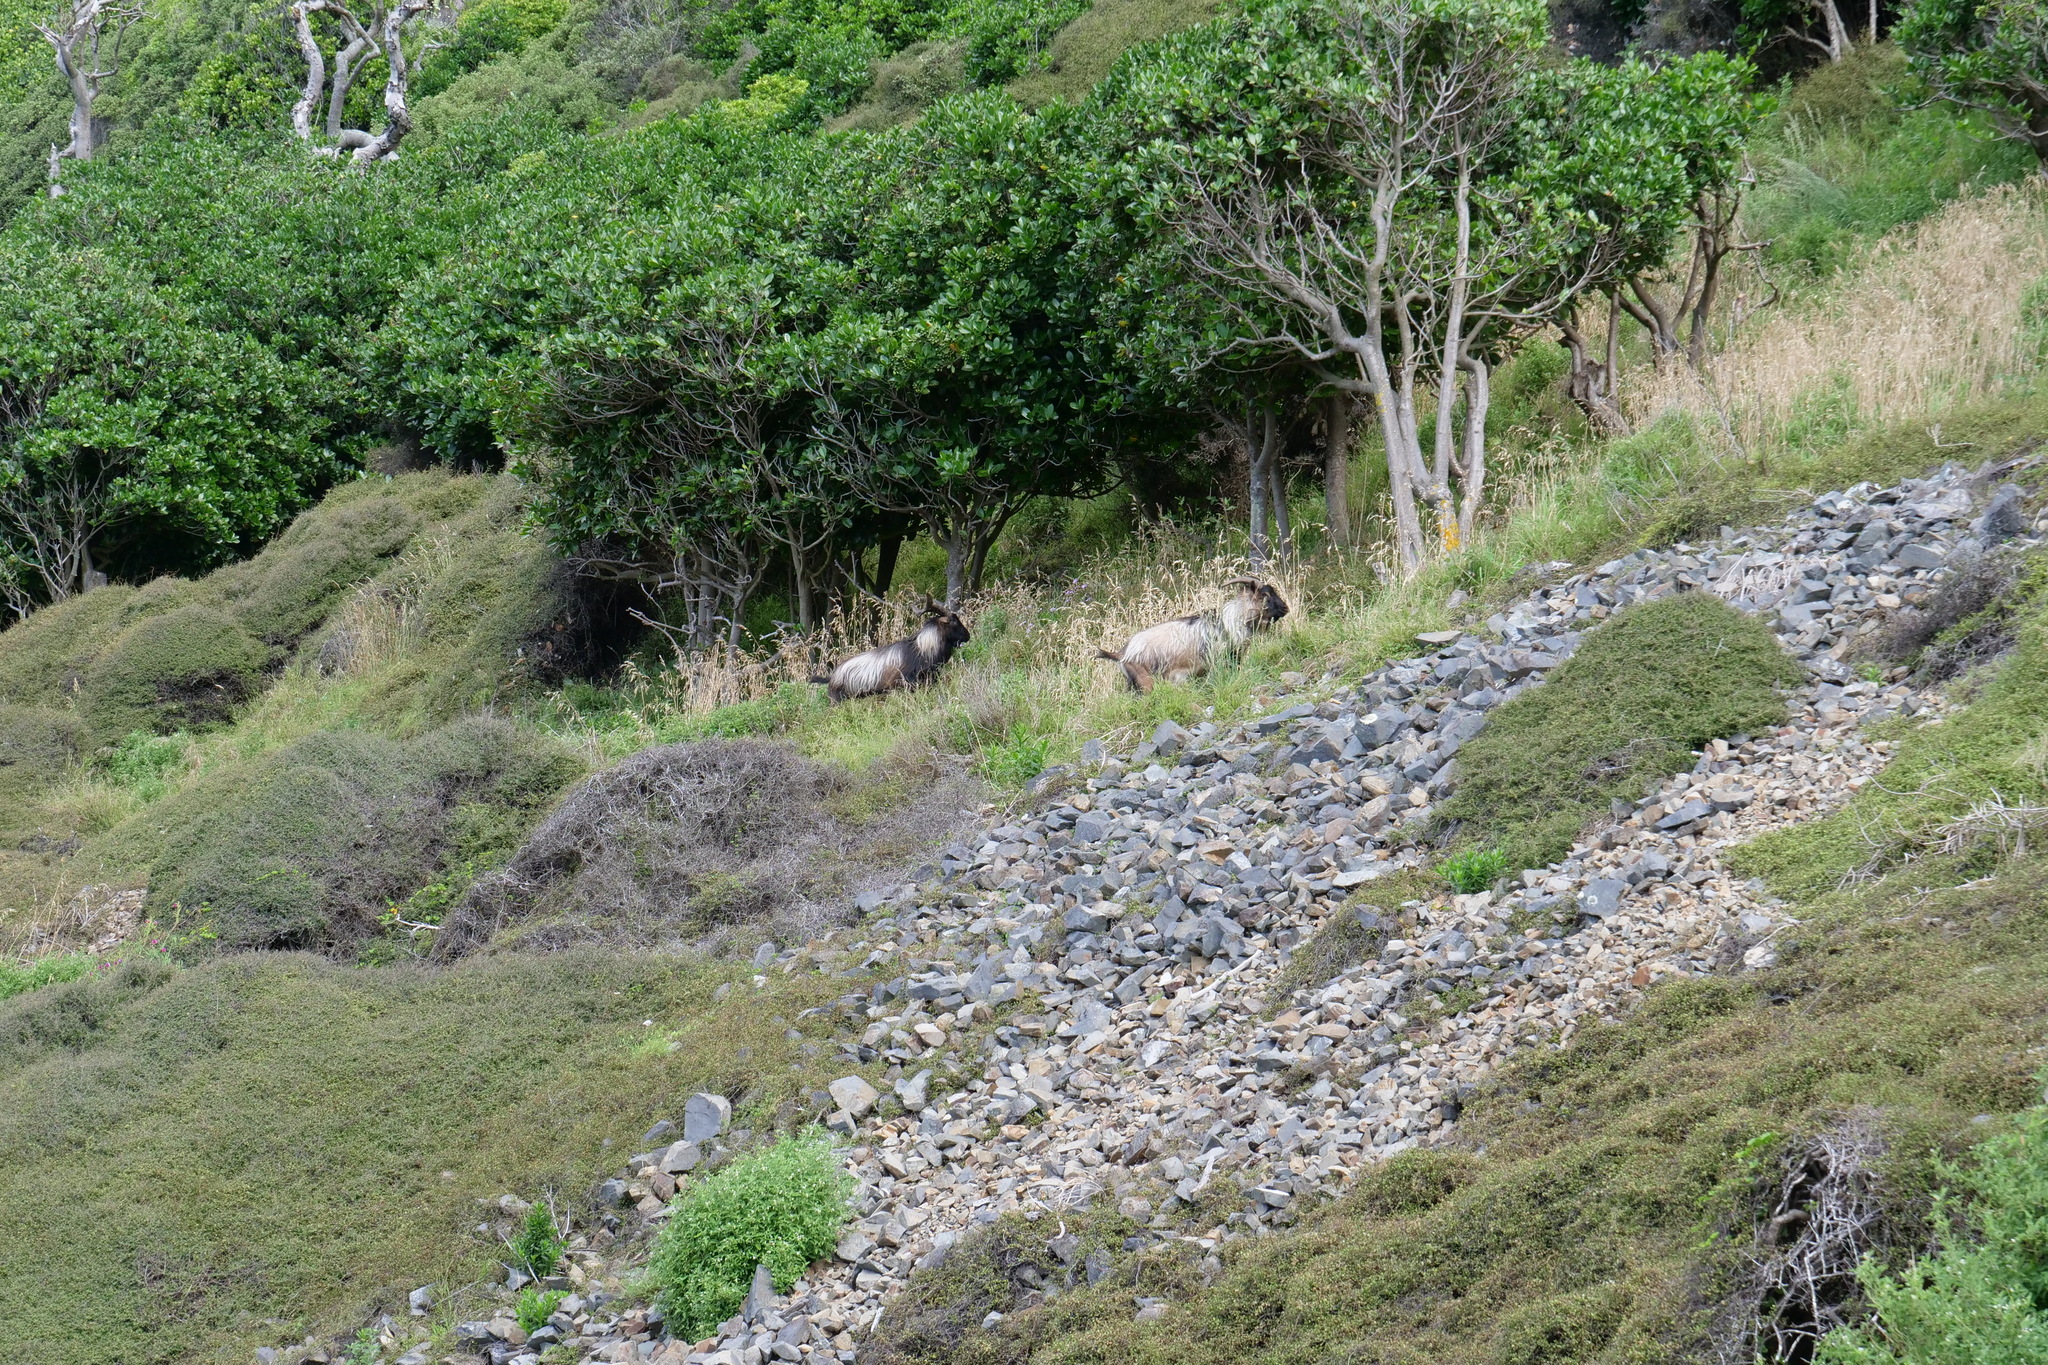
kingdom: Animalia
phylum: Chordata
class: Mammalia
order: Artiodactyla
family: Bovidae
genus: Capra
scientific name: Capra hircus
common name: Domestic goat
